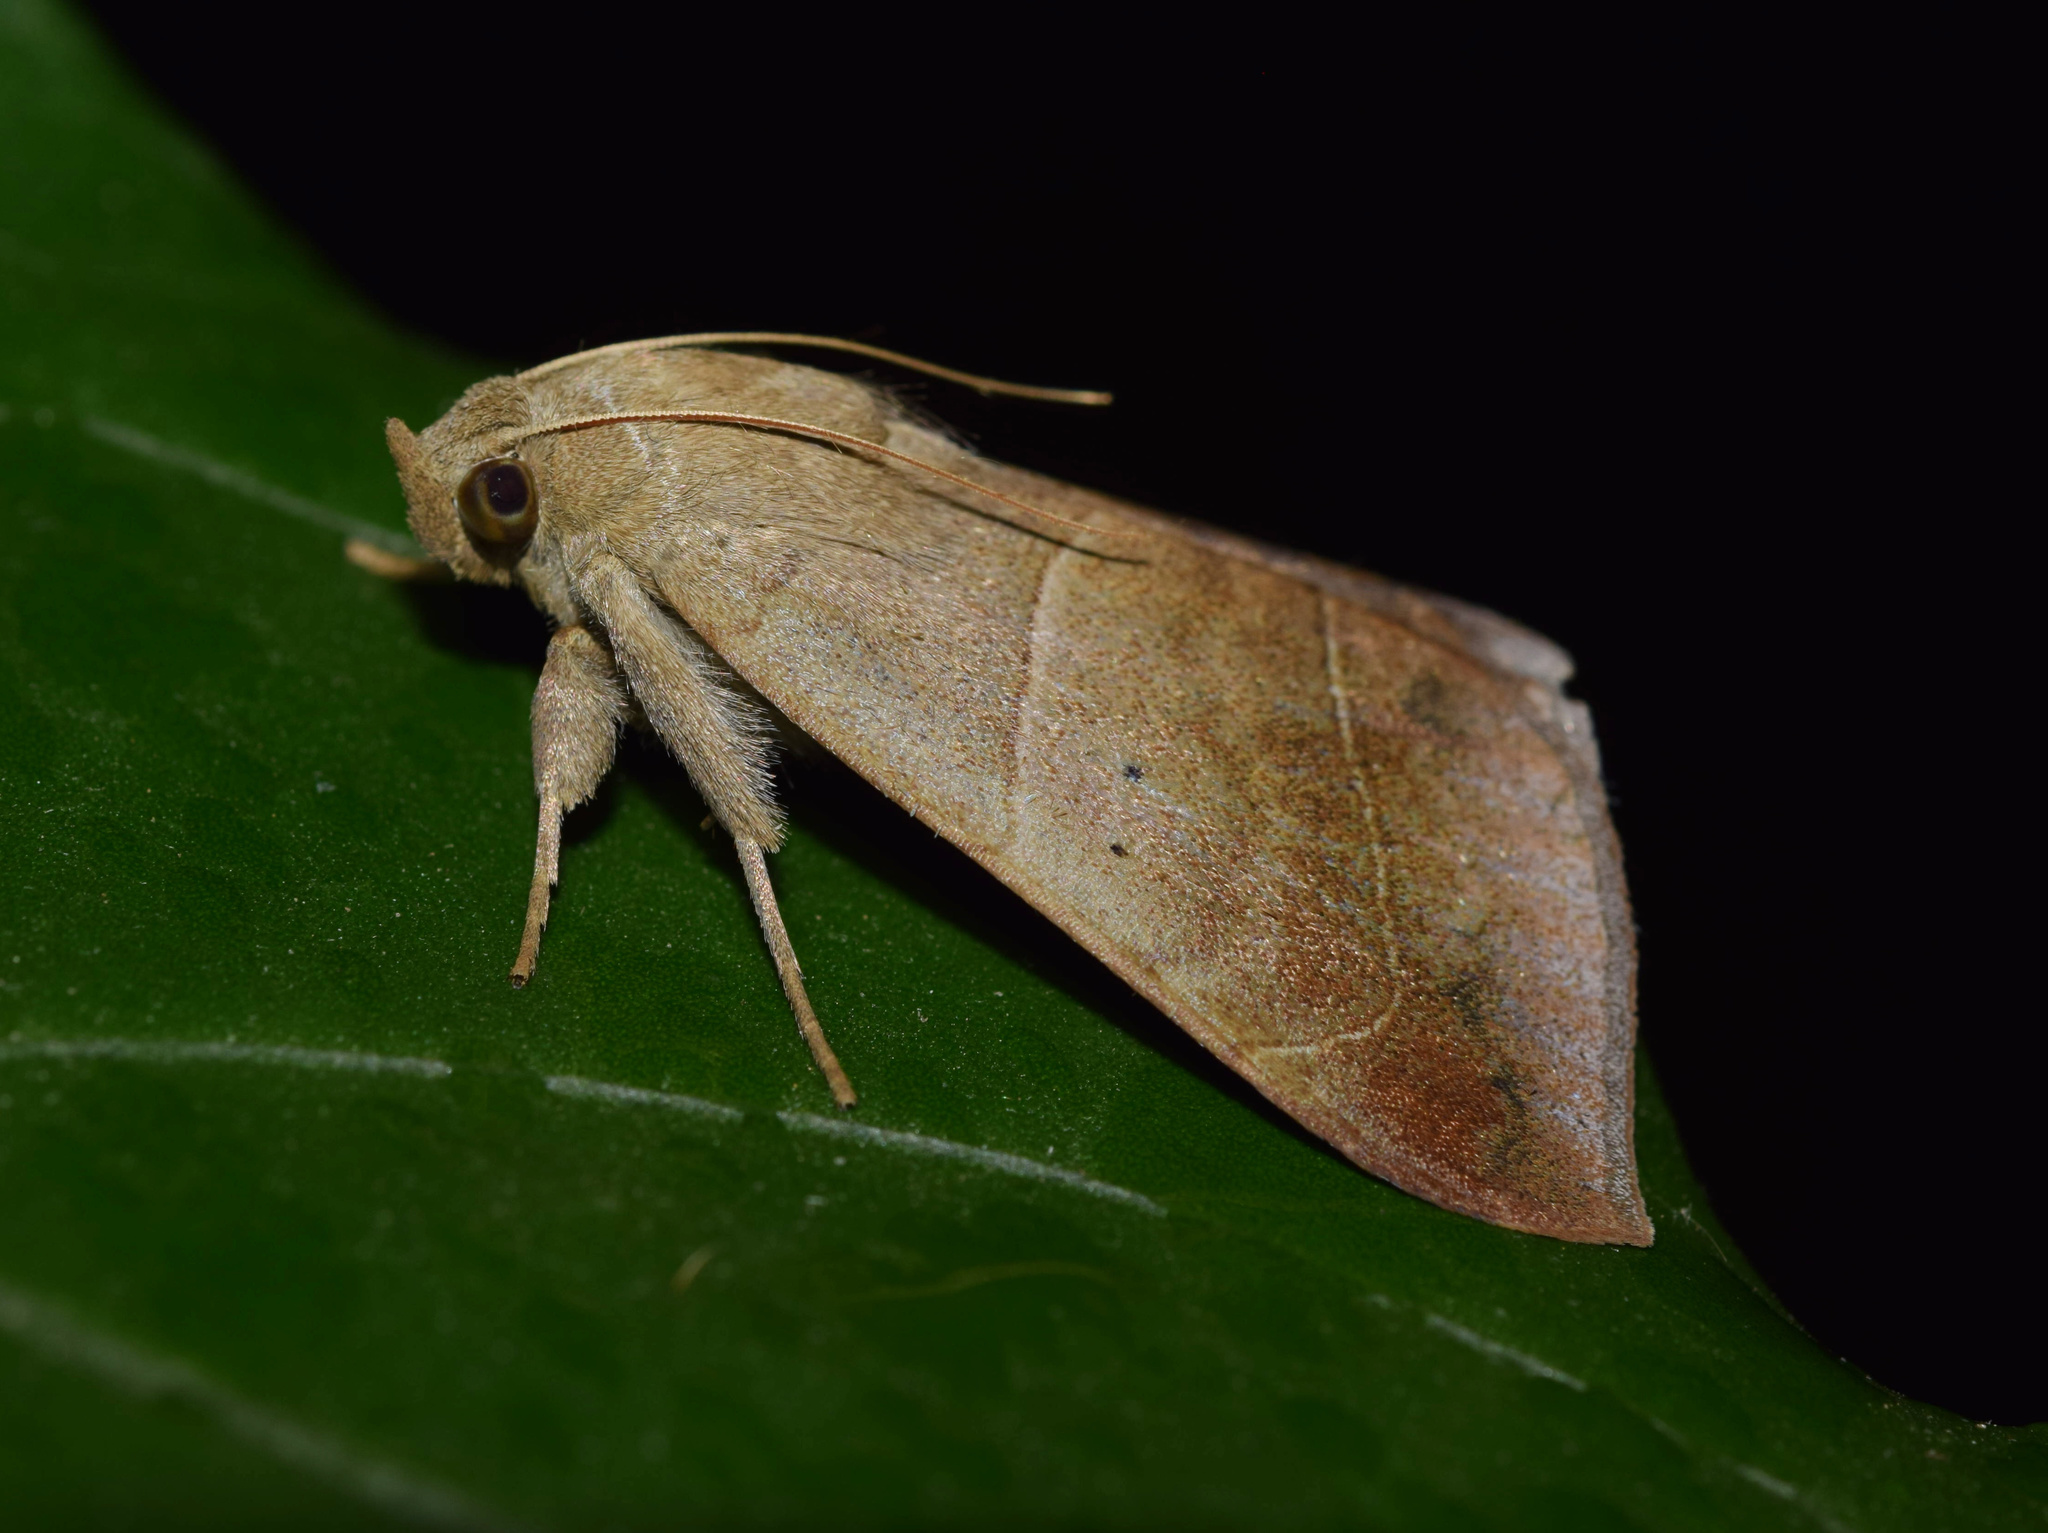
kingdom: Animalia
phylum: Arthropoda
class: Insecta
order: Lepidoptera
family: Erebidae
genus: Achaea
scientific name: Achaea indeterminata
